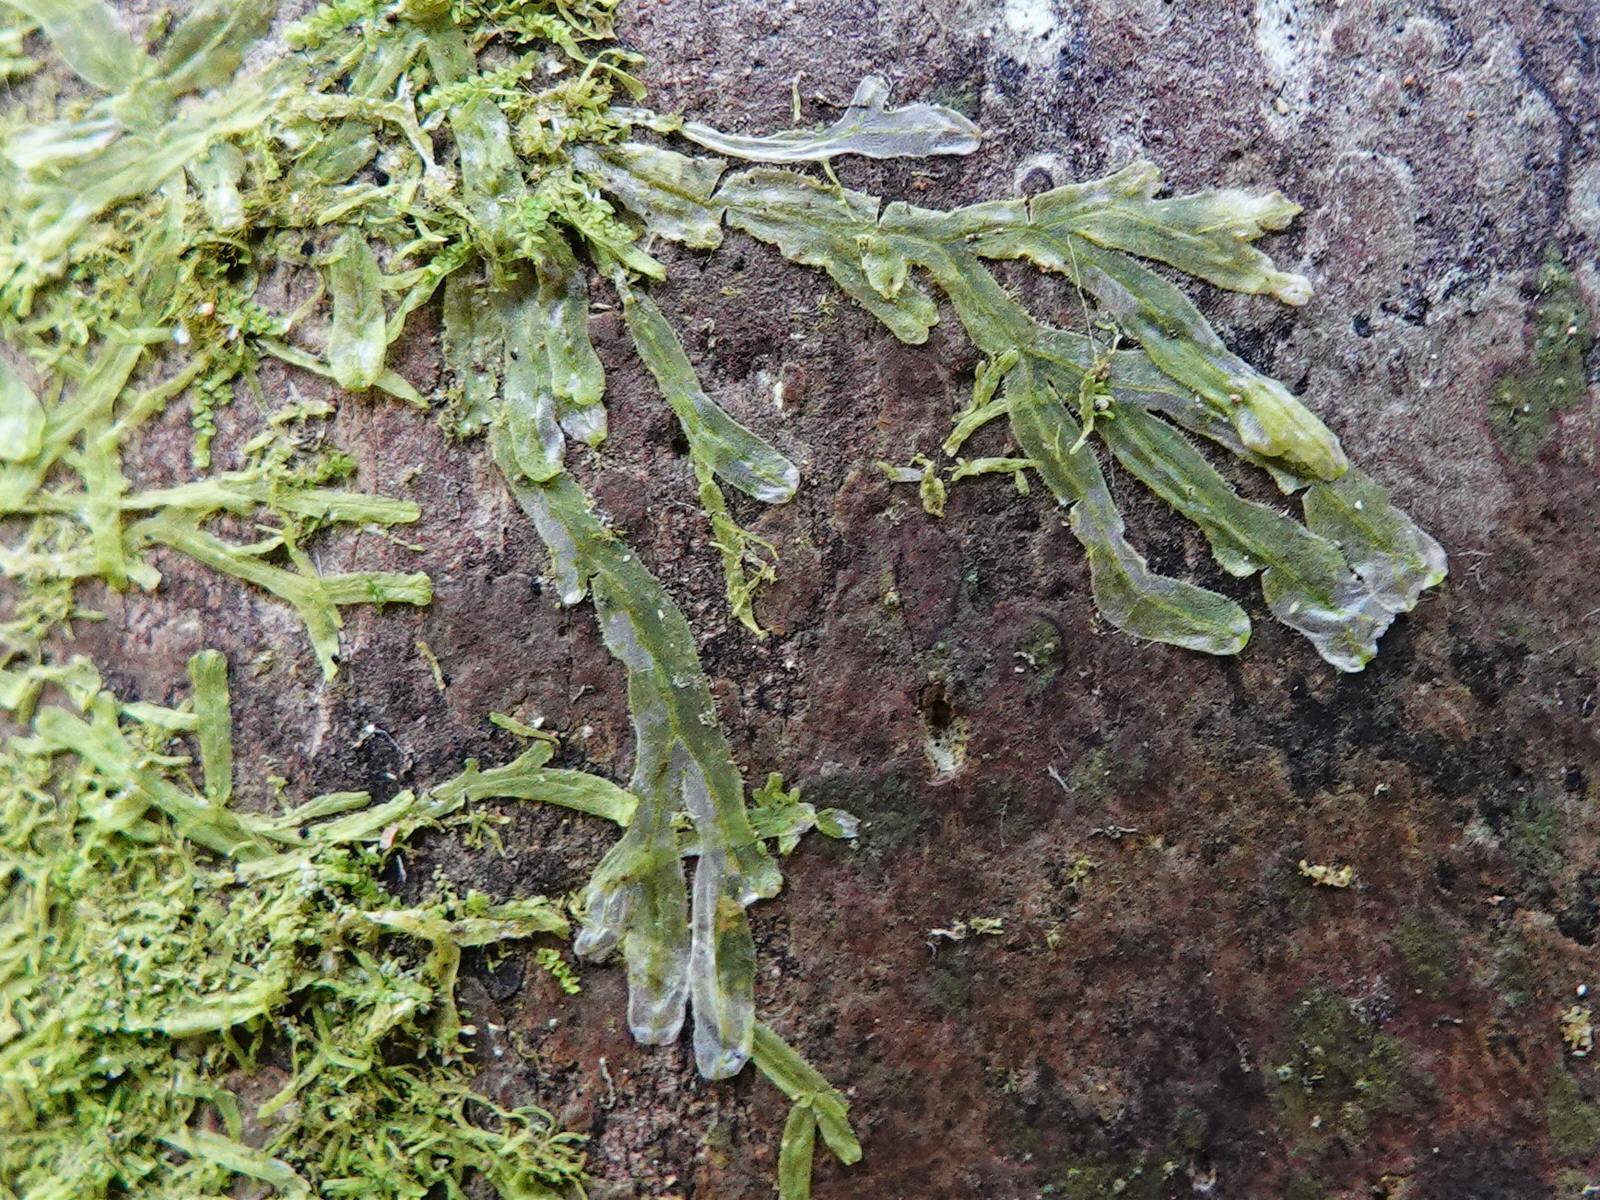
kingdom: Plantae
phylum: Marchantiophyta
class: Jungermanniopsida
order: Metzgeriales
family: Metzgeriaceae
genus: Metzgeria
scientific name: Metzgeria furcata
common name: Forked veilwort
